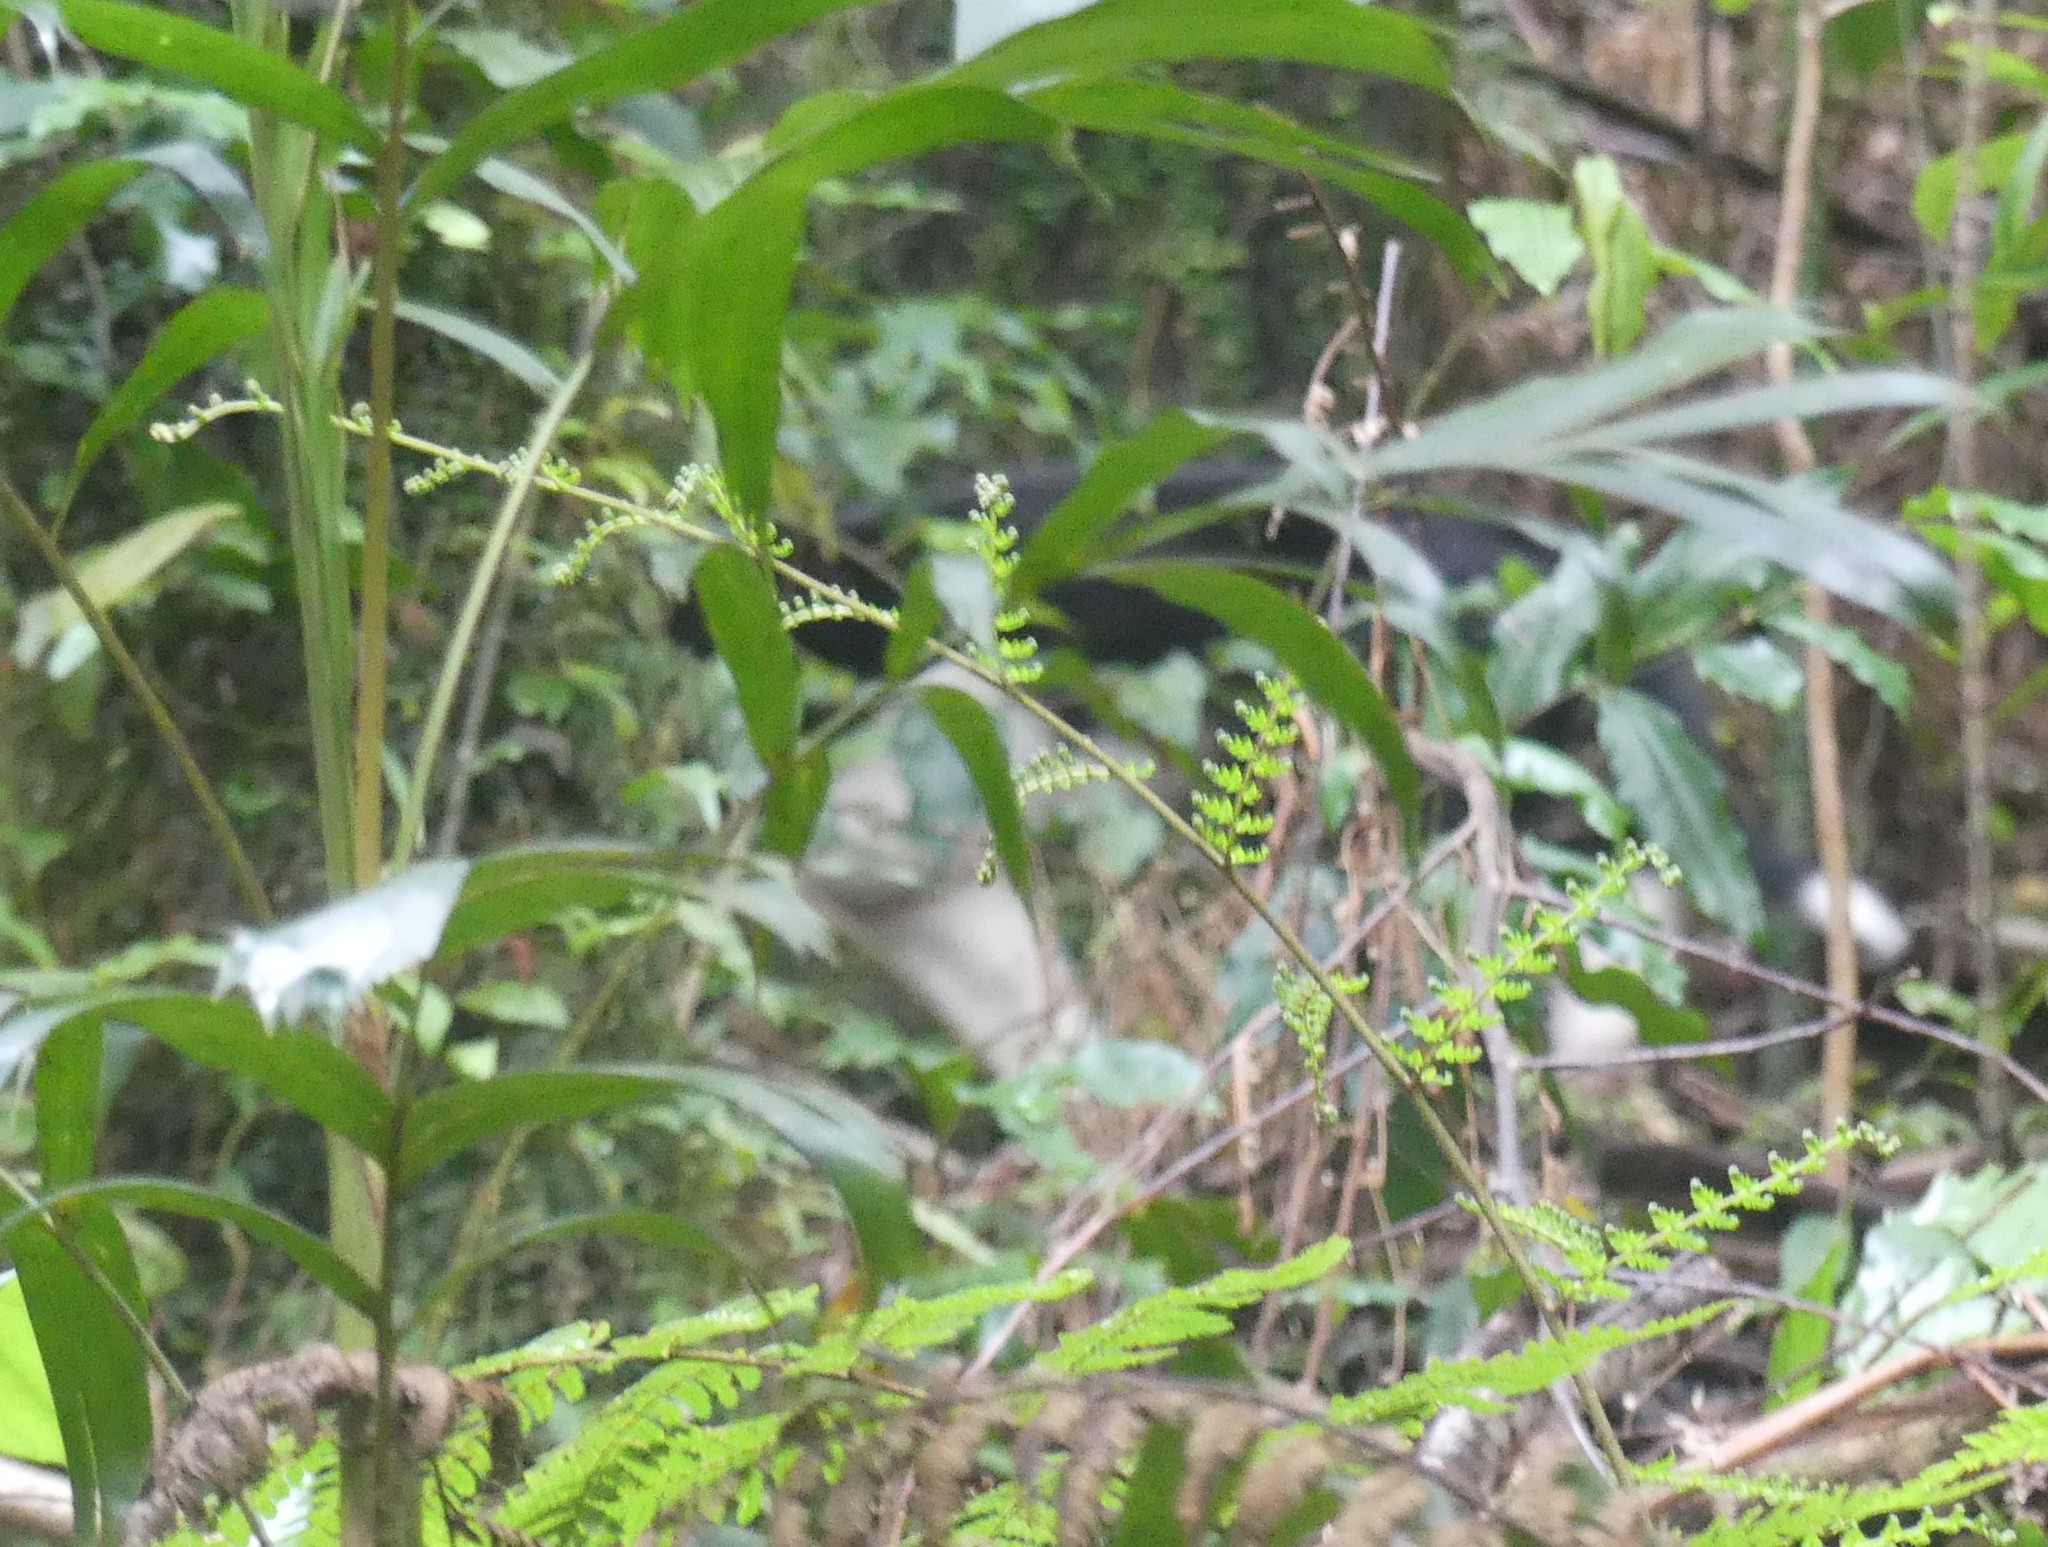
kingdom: Animalia
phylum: Chordata
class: Mammalia
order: Carnivora
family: Canidae
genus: Canis
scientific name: Canis lupus
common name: Gray wolf
